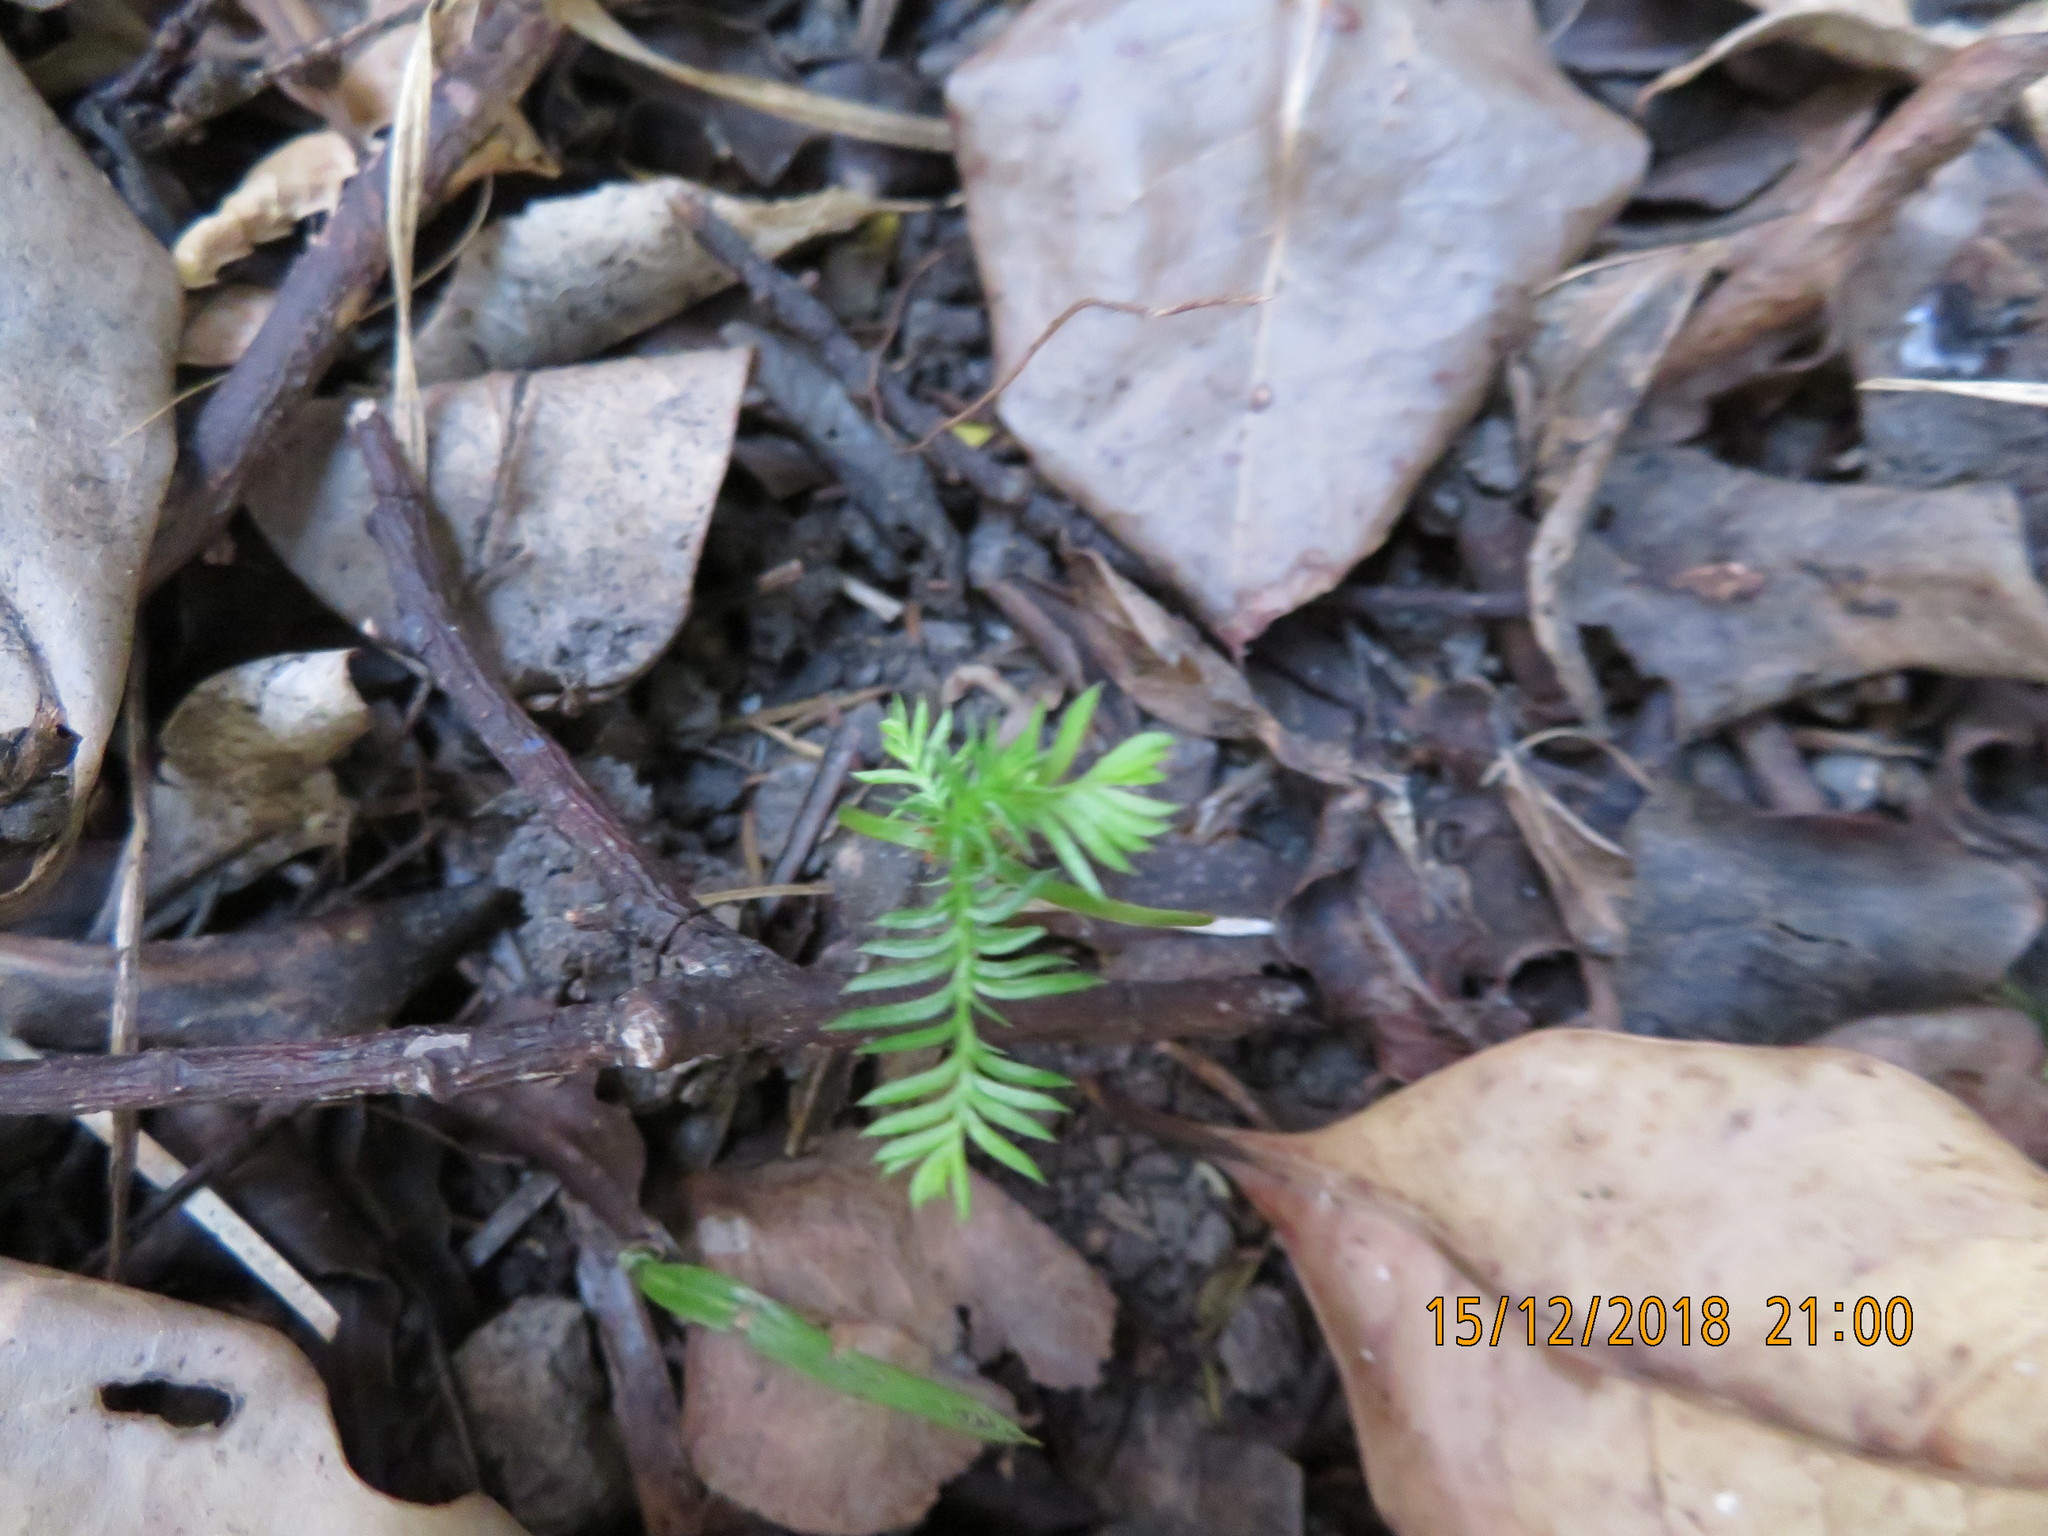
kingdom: Plantae
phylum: Tracheophyta
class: Pinopsida
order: Pinales
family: Podocarpaceae
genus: Dacrycarpus
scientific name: Dacrycarpus dacrydioides
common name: White pine
